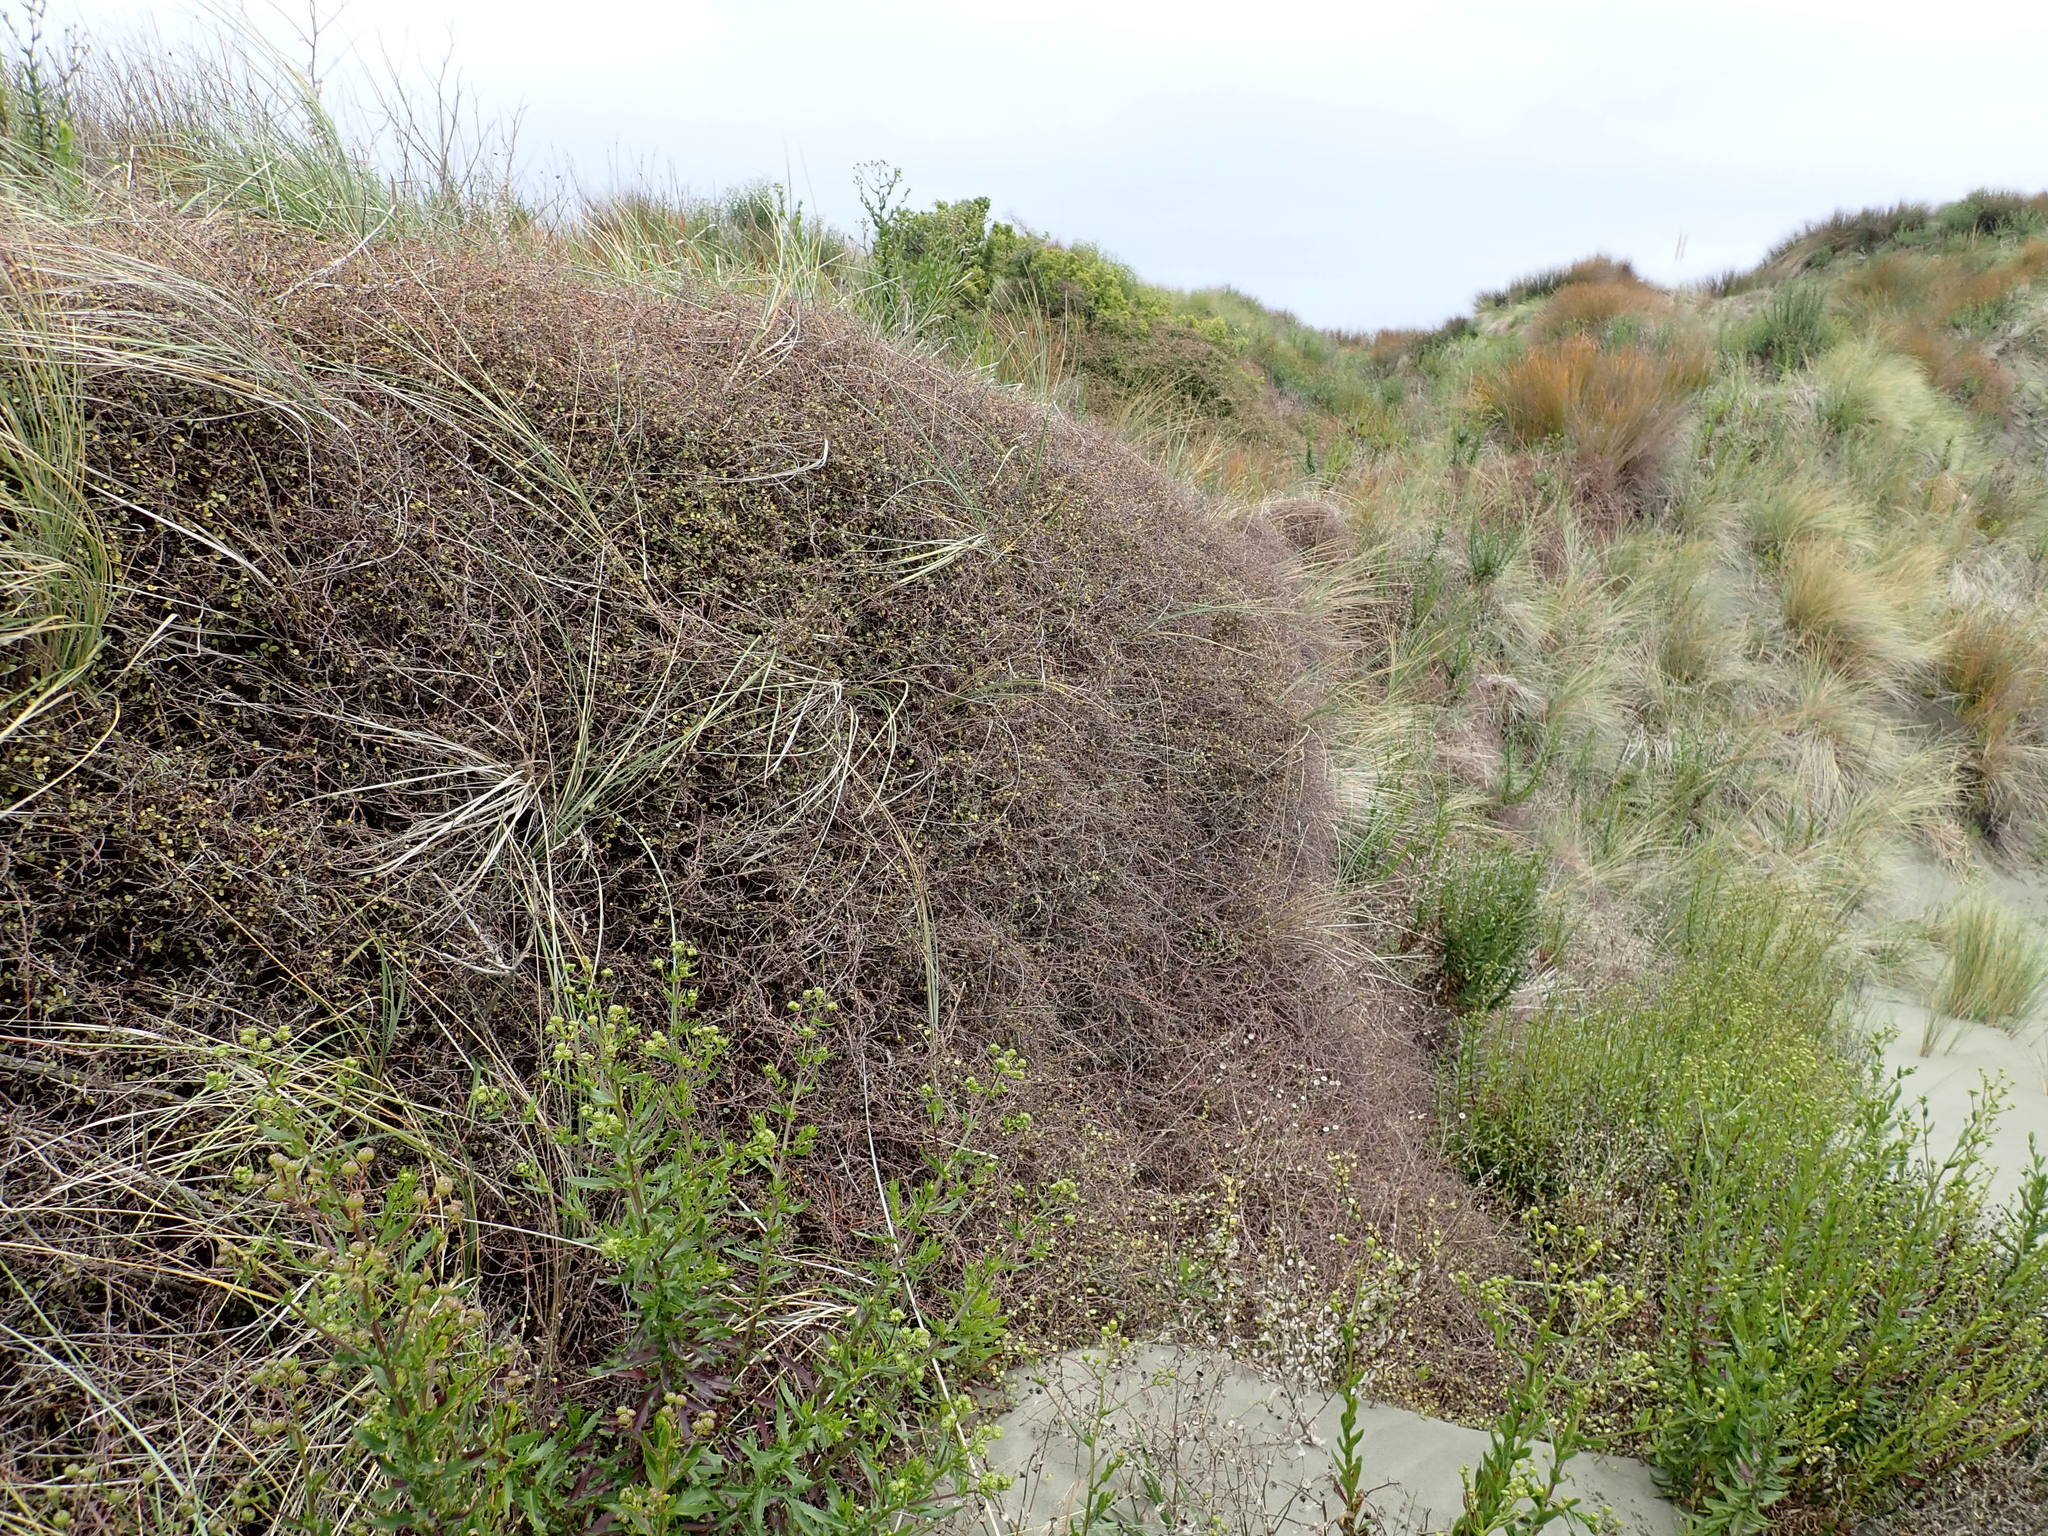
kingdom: Plantae
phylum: Tracheophyta
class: Magnoliopsida
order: Caryophyllales
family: Polygonaceae
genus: Muehlenbeckia
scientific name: Muehlenbeckia complexa
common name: Wireplant
